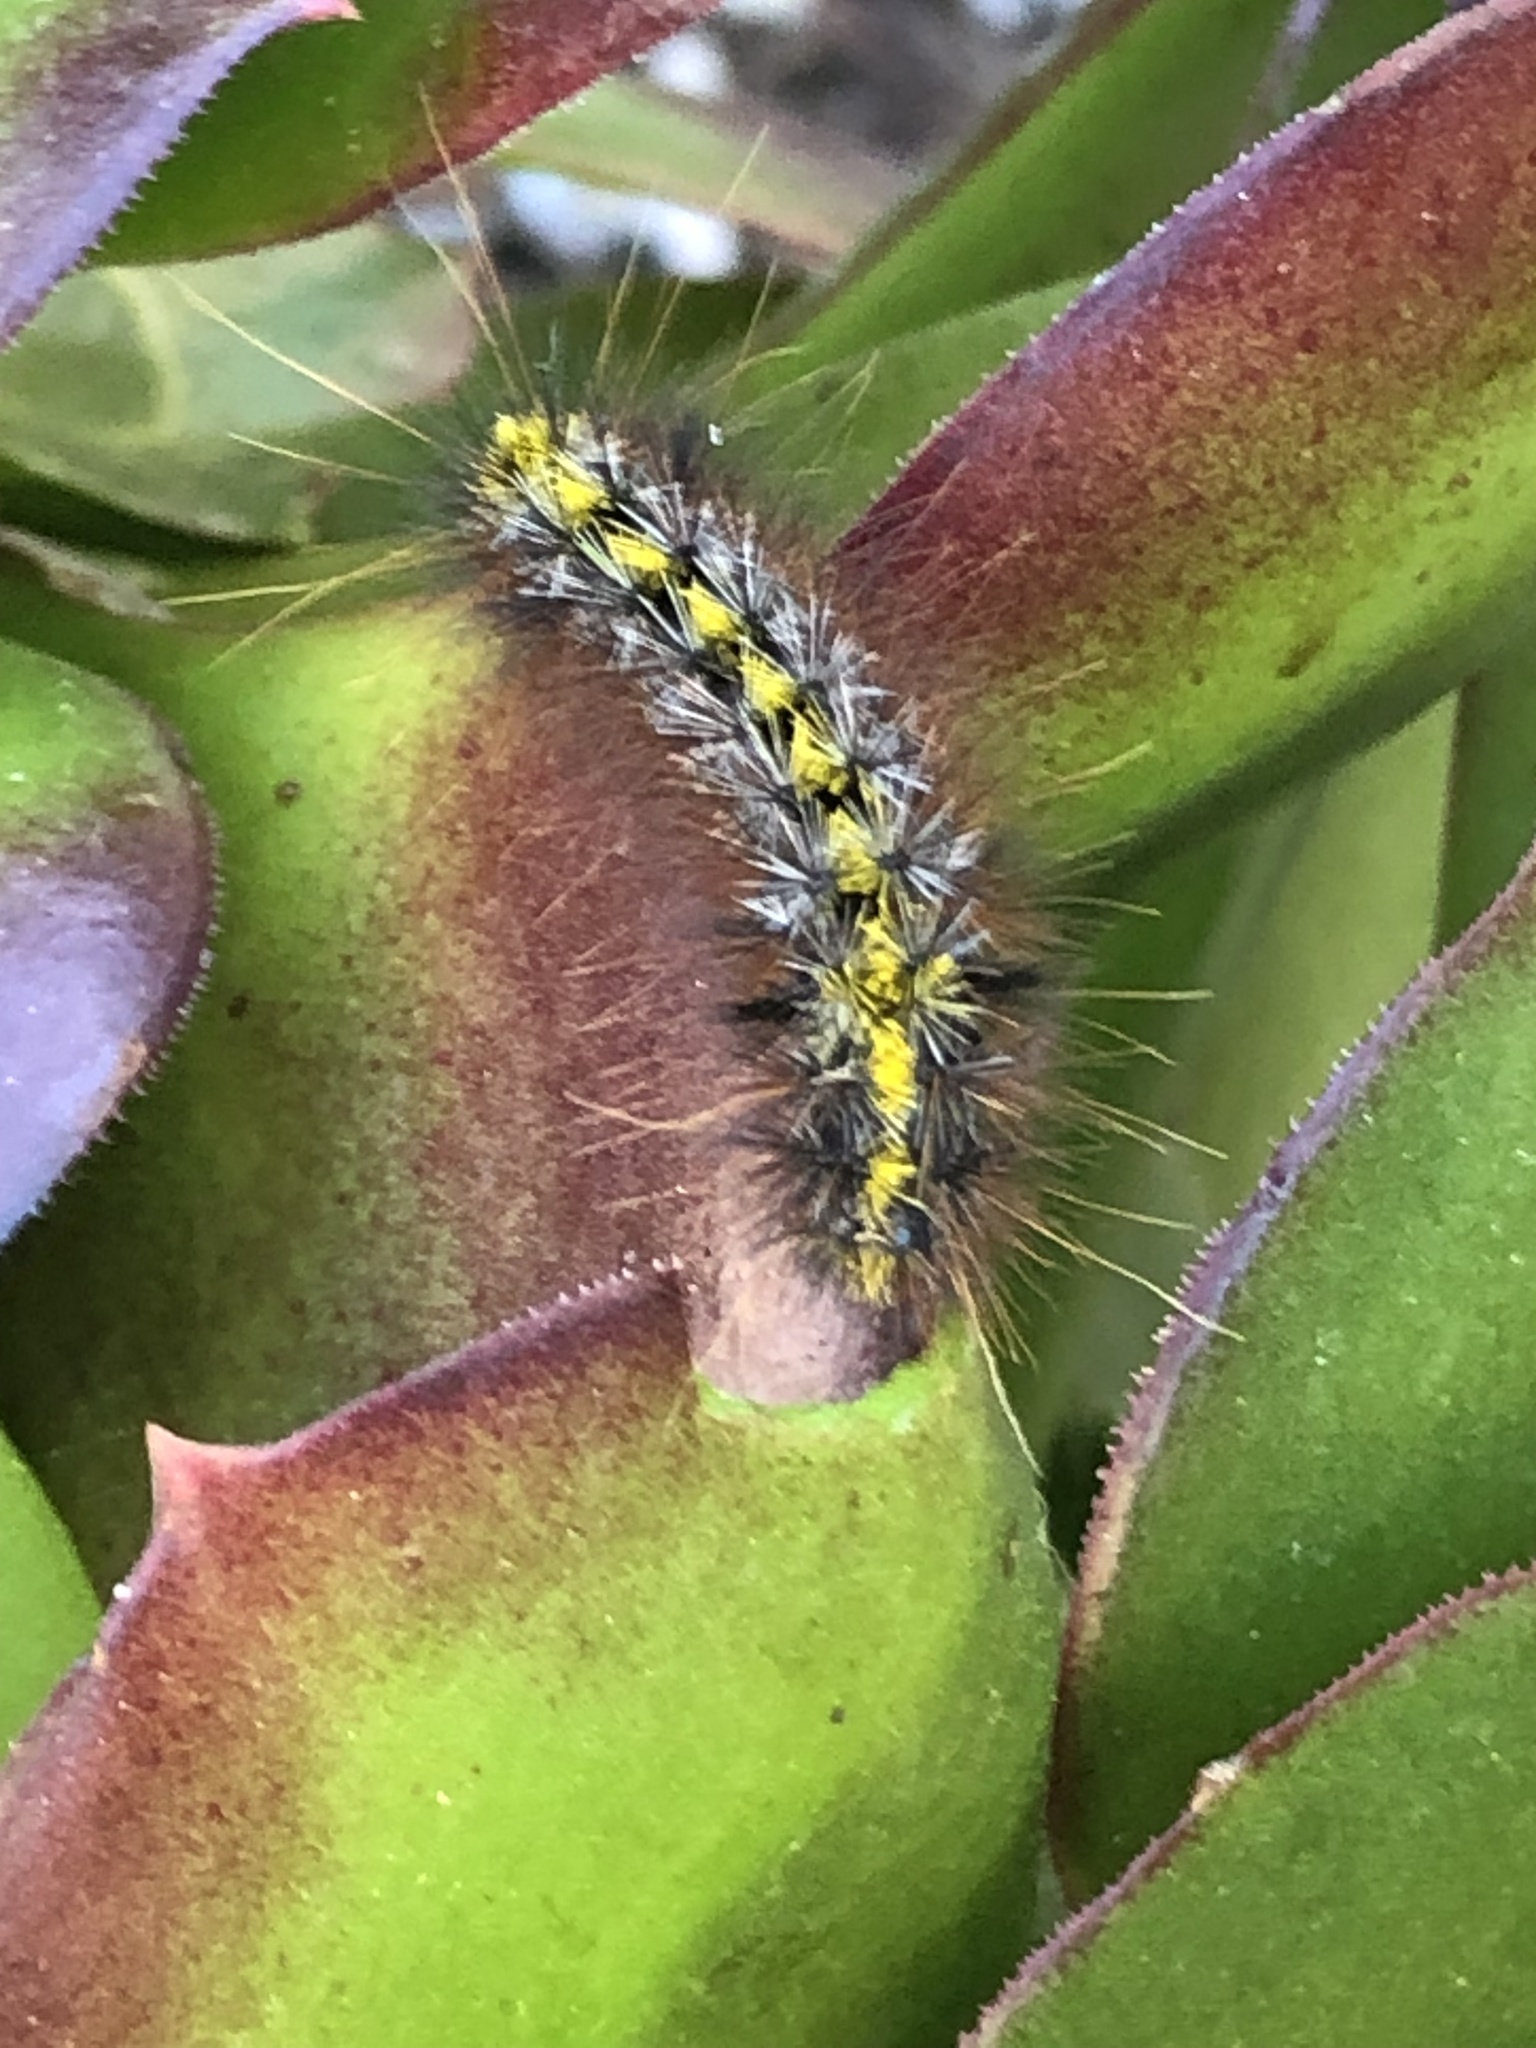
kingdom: Animalia
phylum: Arthropoda
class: Insecta
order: Lepidoptera
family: Erebidae
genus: Lophocampa
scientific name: Lophocampa sobrina
